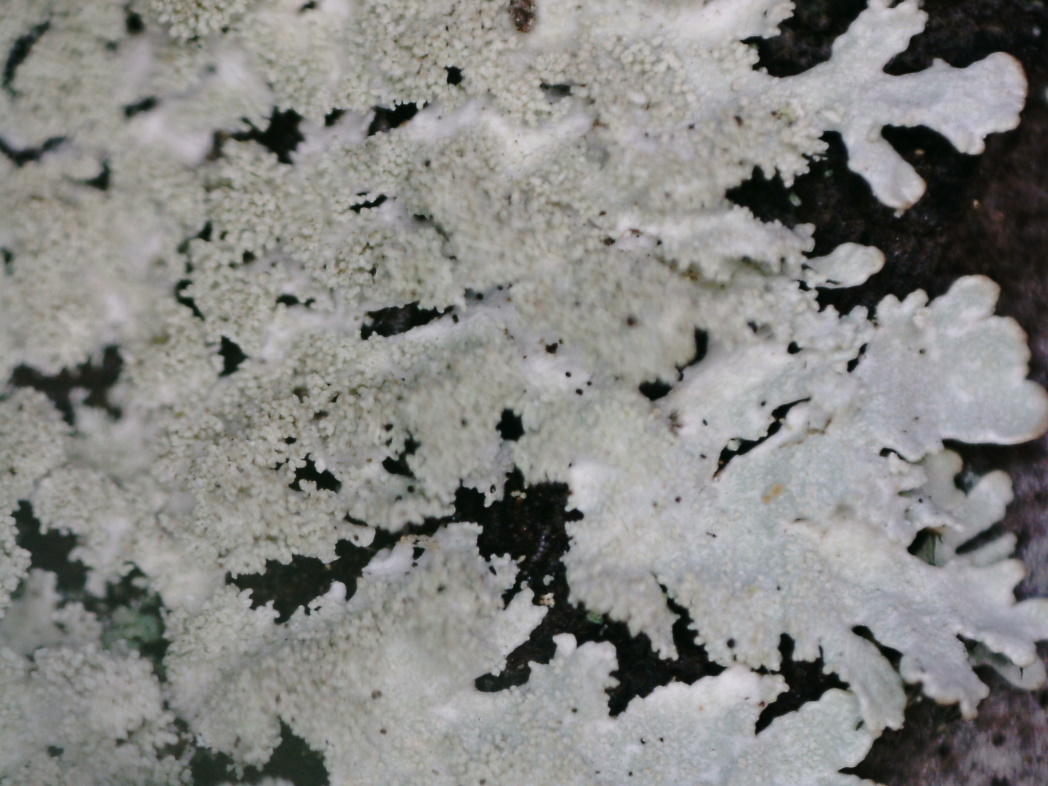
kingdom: Fungi
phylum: Ascomycota
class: Lecanoromycetes
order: Lecanorales
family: Parmeliaceae
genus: Imshaugia
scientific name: Imshaugia aleurites
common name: Salted starburst lichen
